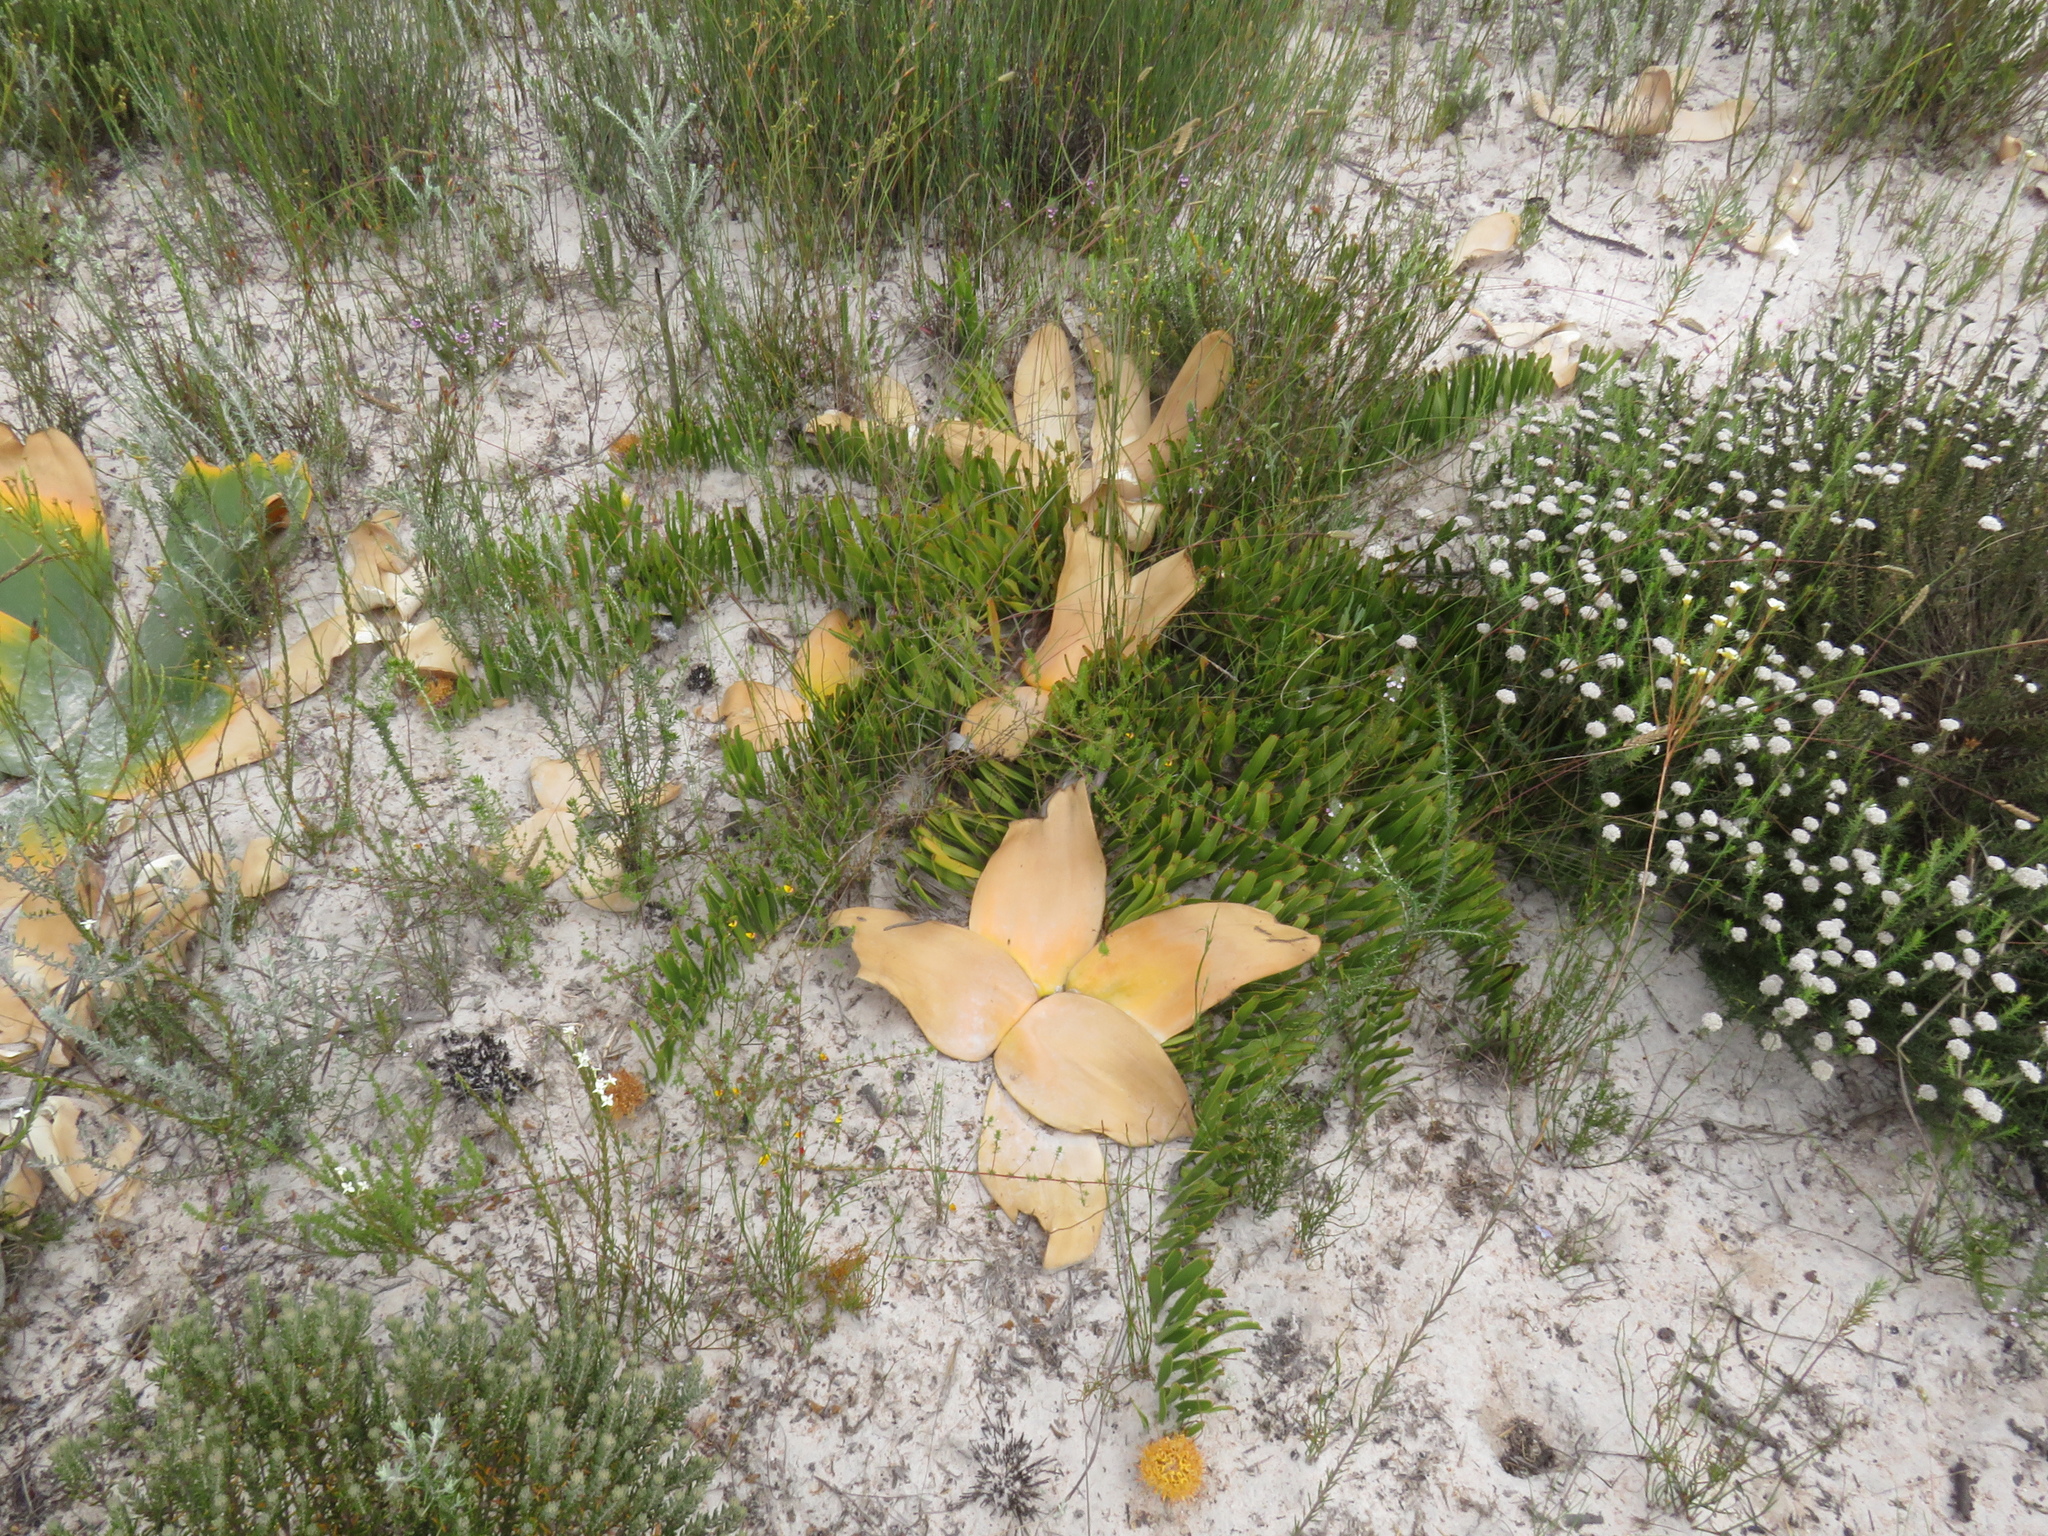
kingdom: Plantae
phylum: Tracheophyta
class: Magnoliopsida
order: Proteales
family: Proteaceae
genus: Leucospermum
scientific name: Leucospermum hypophyllocarpodendron
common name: Snakestem pincushion
